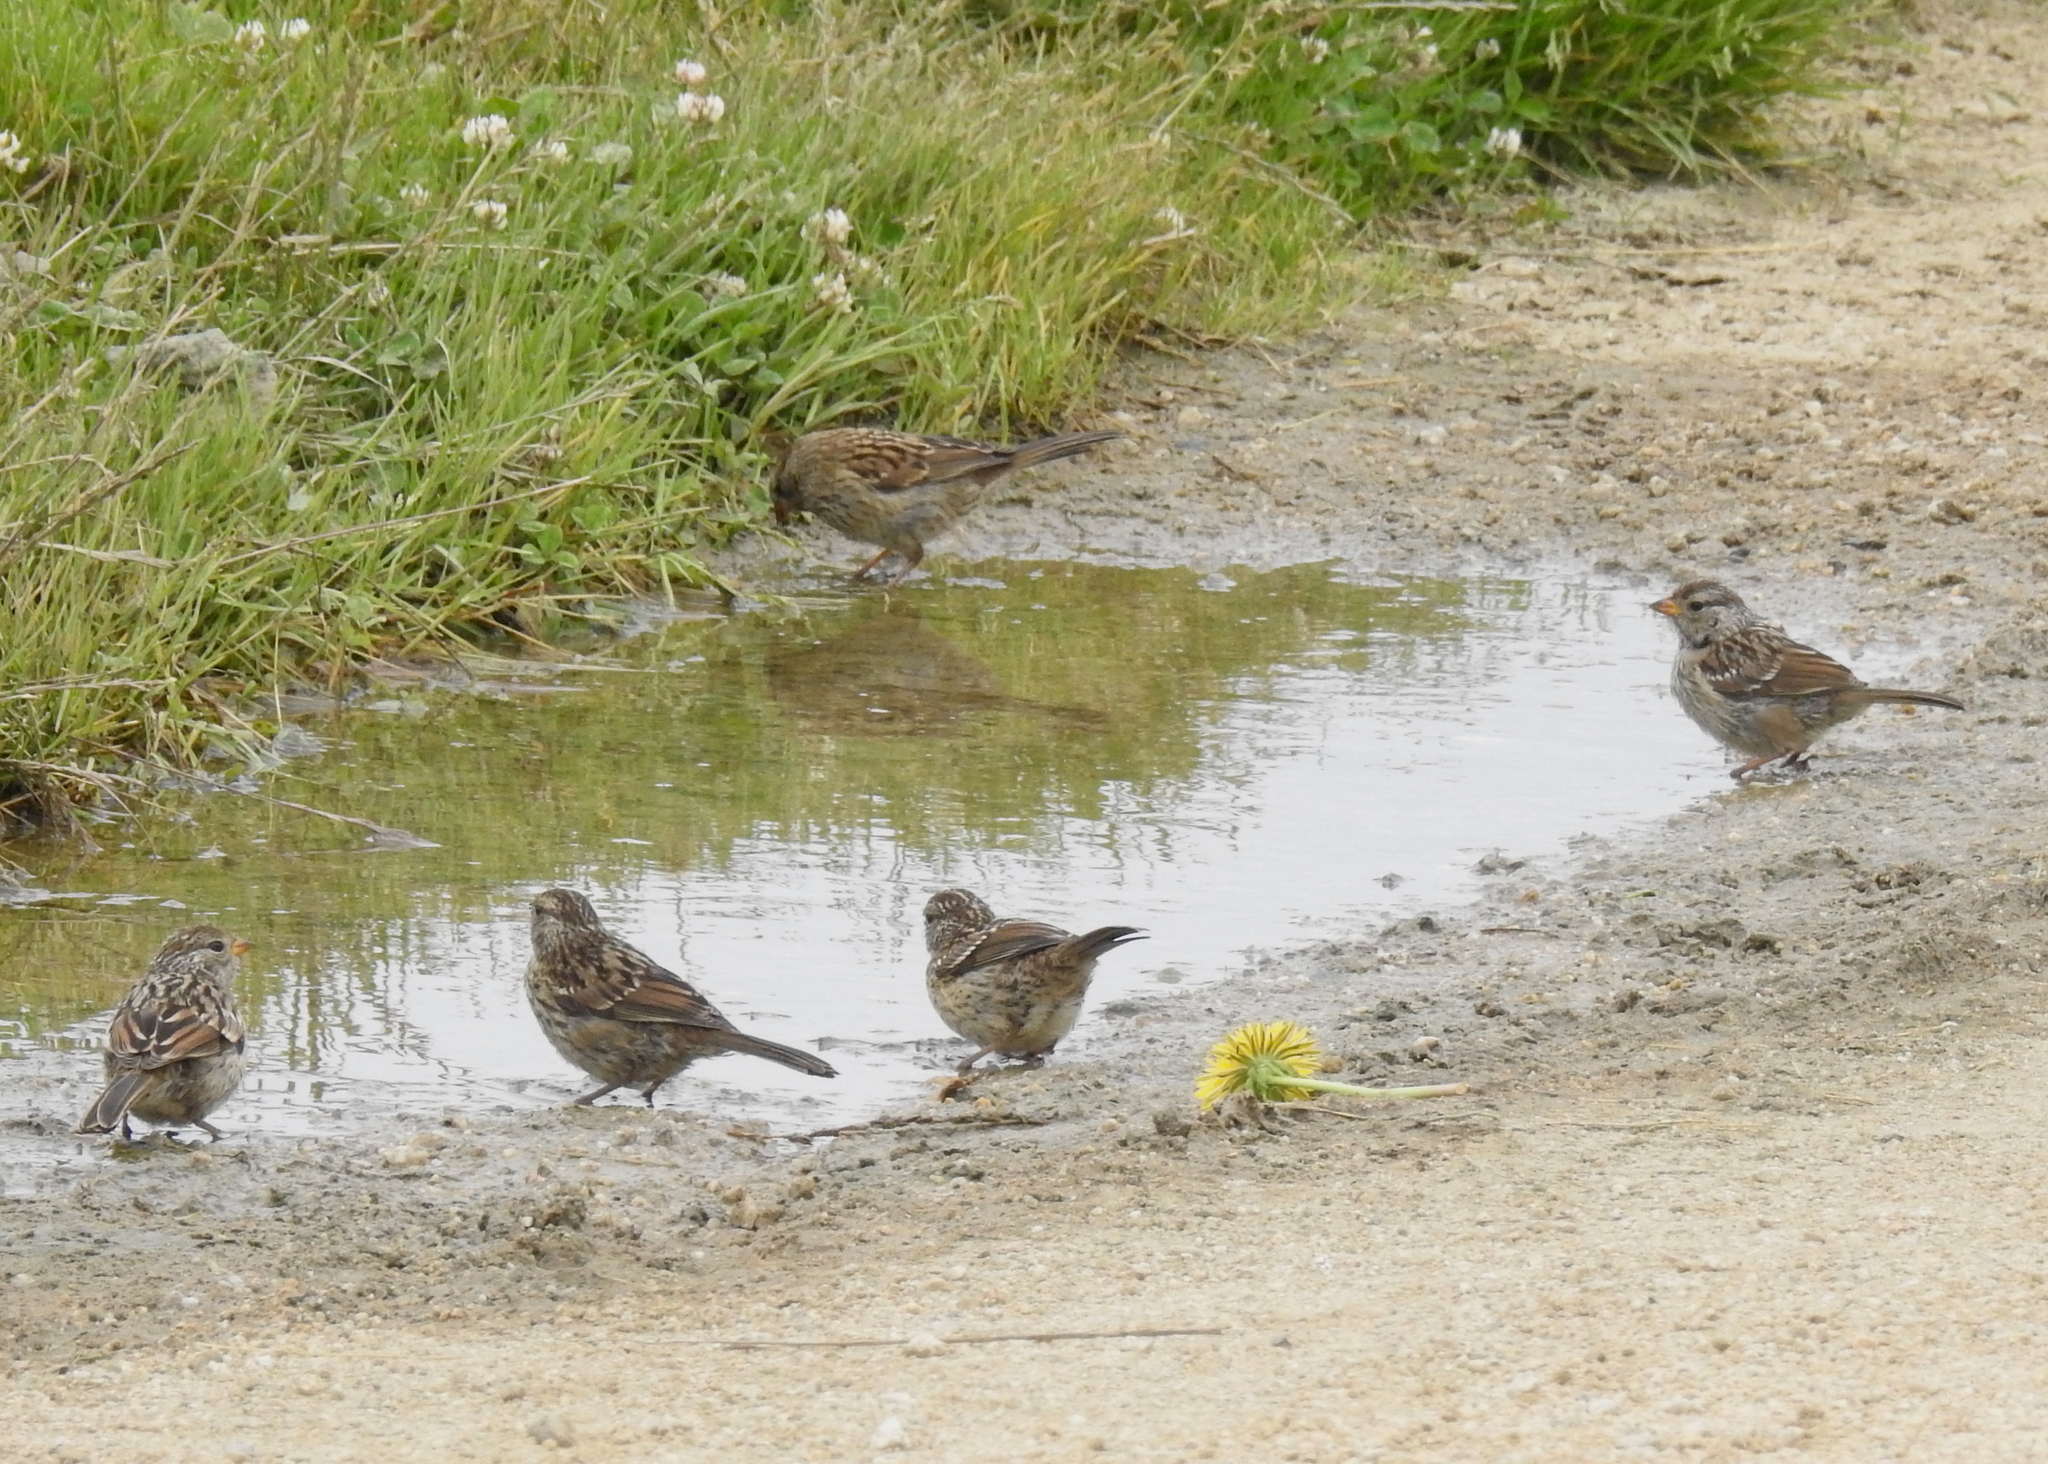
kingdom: Animalia
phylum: Chordata
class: Aves
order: Passeriformes
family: Passerellidae
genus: Zonotrichia
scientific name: Zonotrichia leucophrys
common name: White-crowned sparrow
